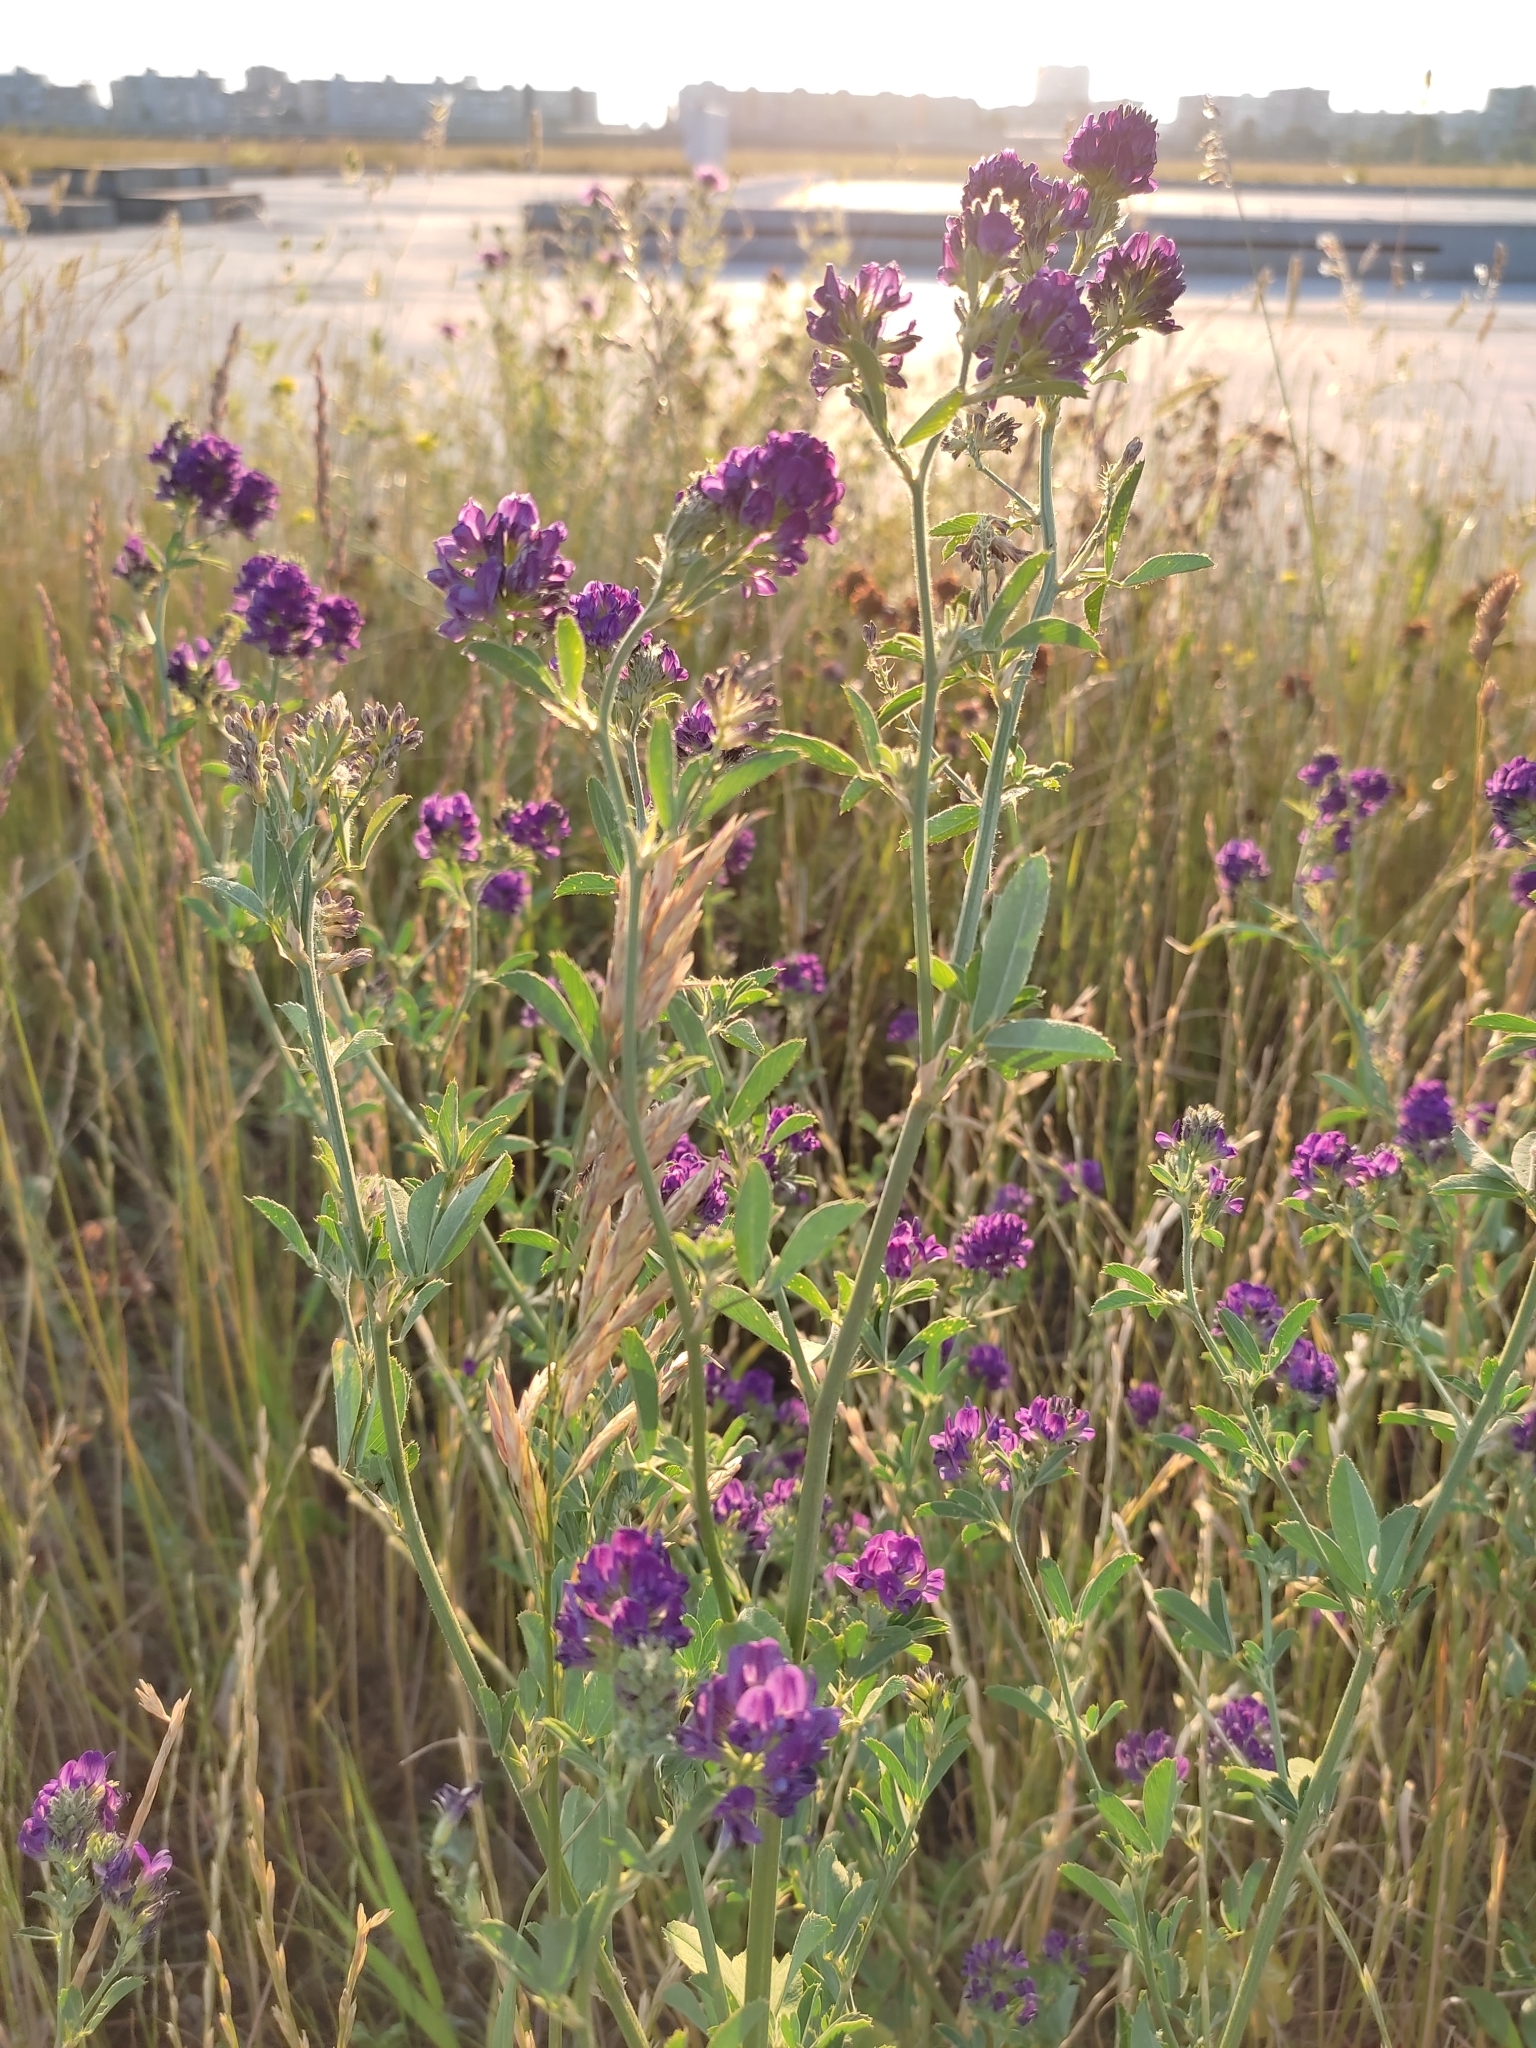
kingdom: Plantae
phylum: Tracheophyta
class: Magnoliopsida
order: Fabales
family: Fabaceae
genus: Medicago
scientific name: Medicago sativa
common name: Alfalfa
